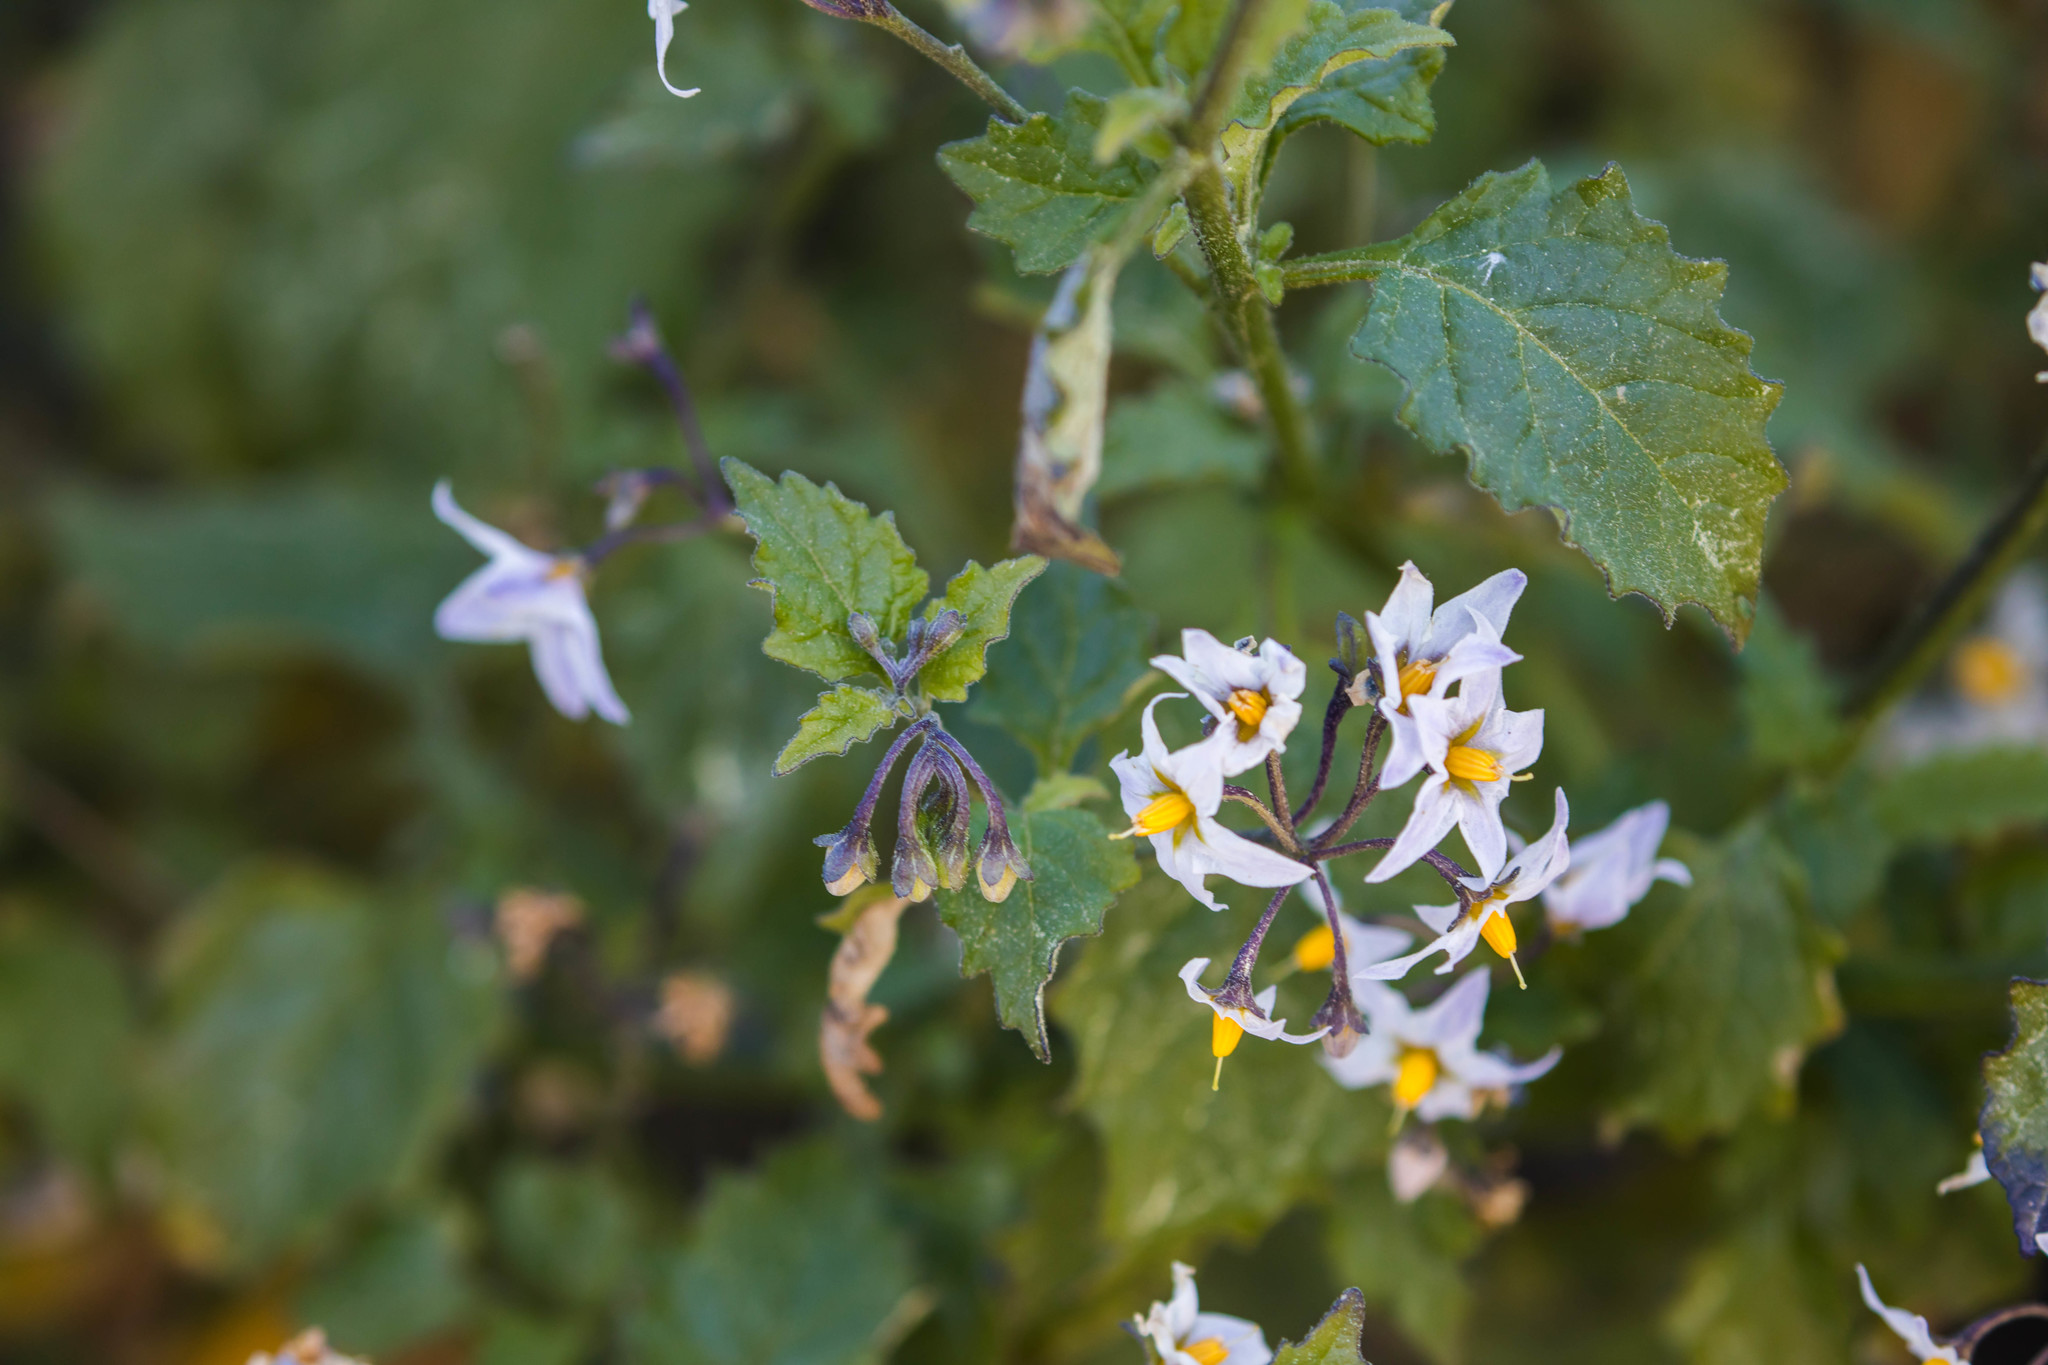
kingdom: Plantae
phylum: Tracheophyta
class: Magnoliopsida
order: Solanales
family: Solanaceae
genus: Solanum
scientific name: Solanum douglasii
